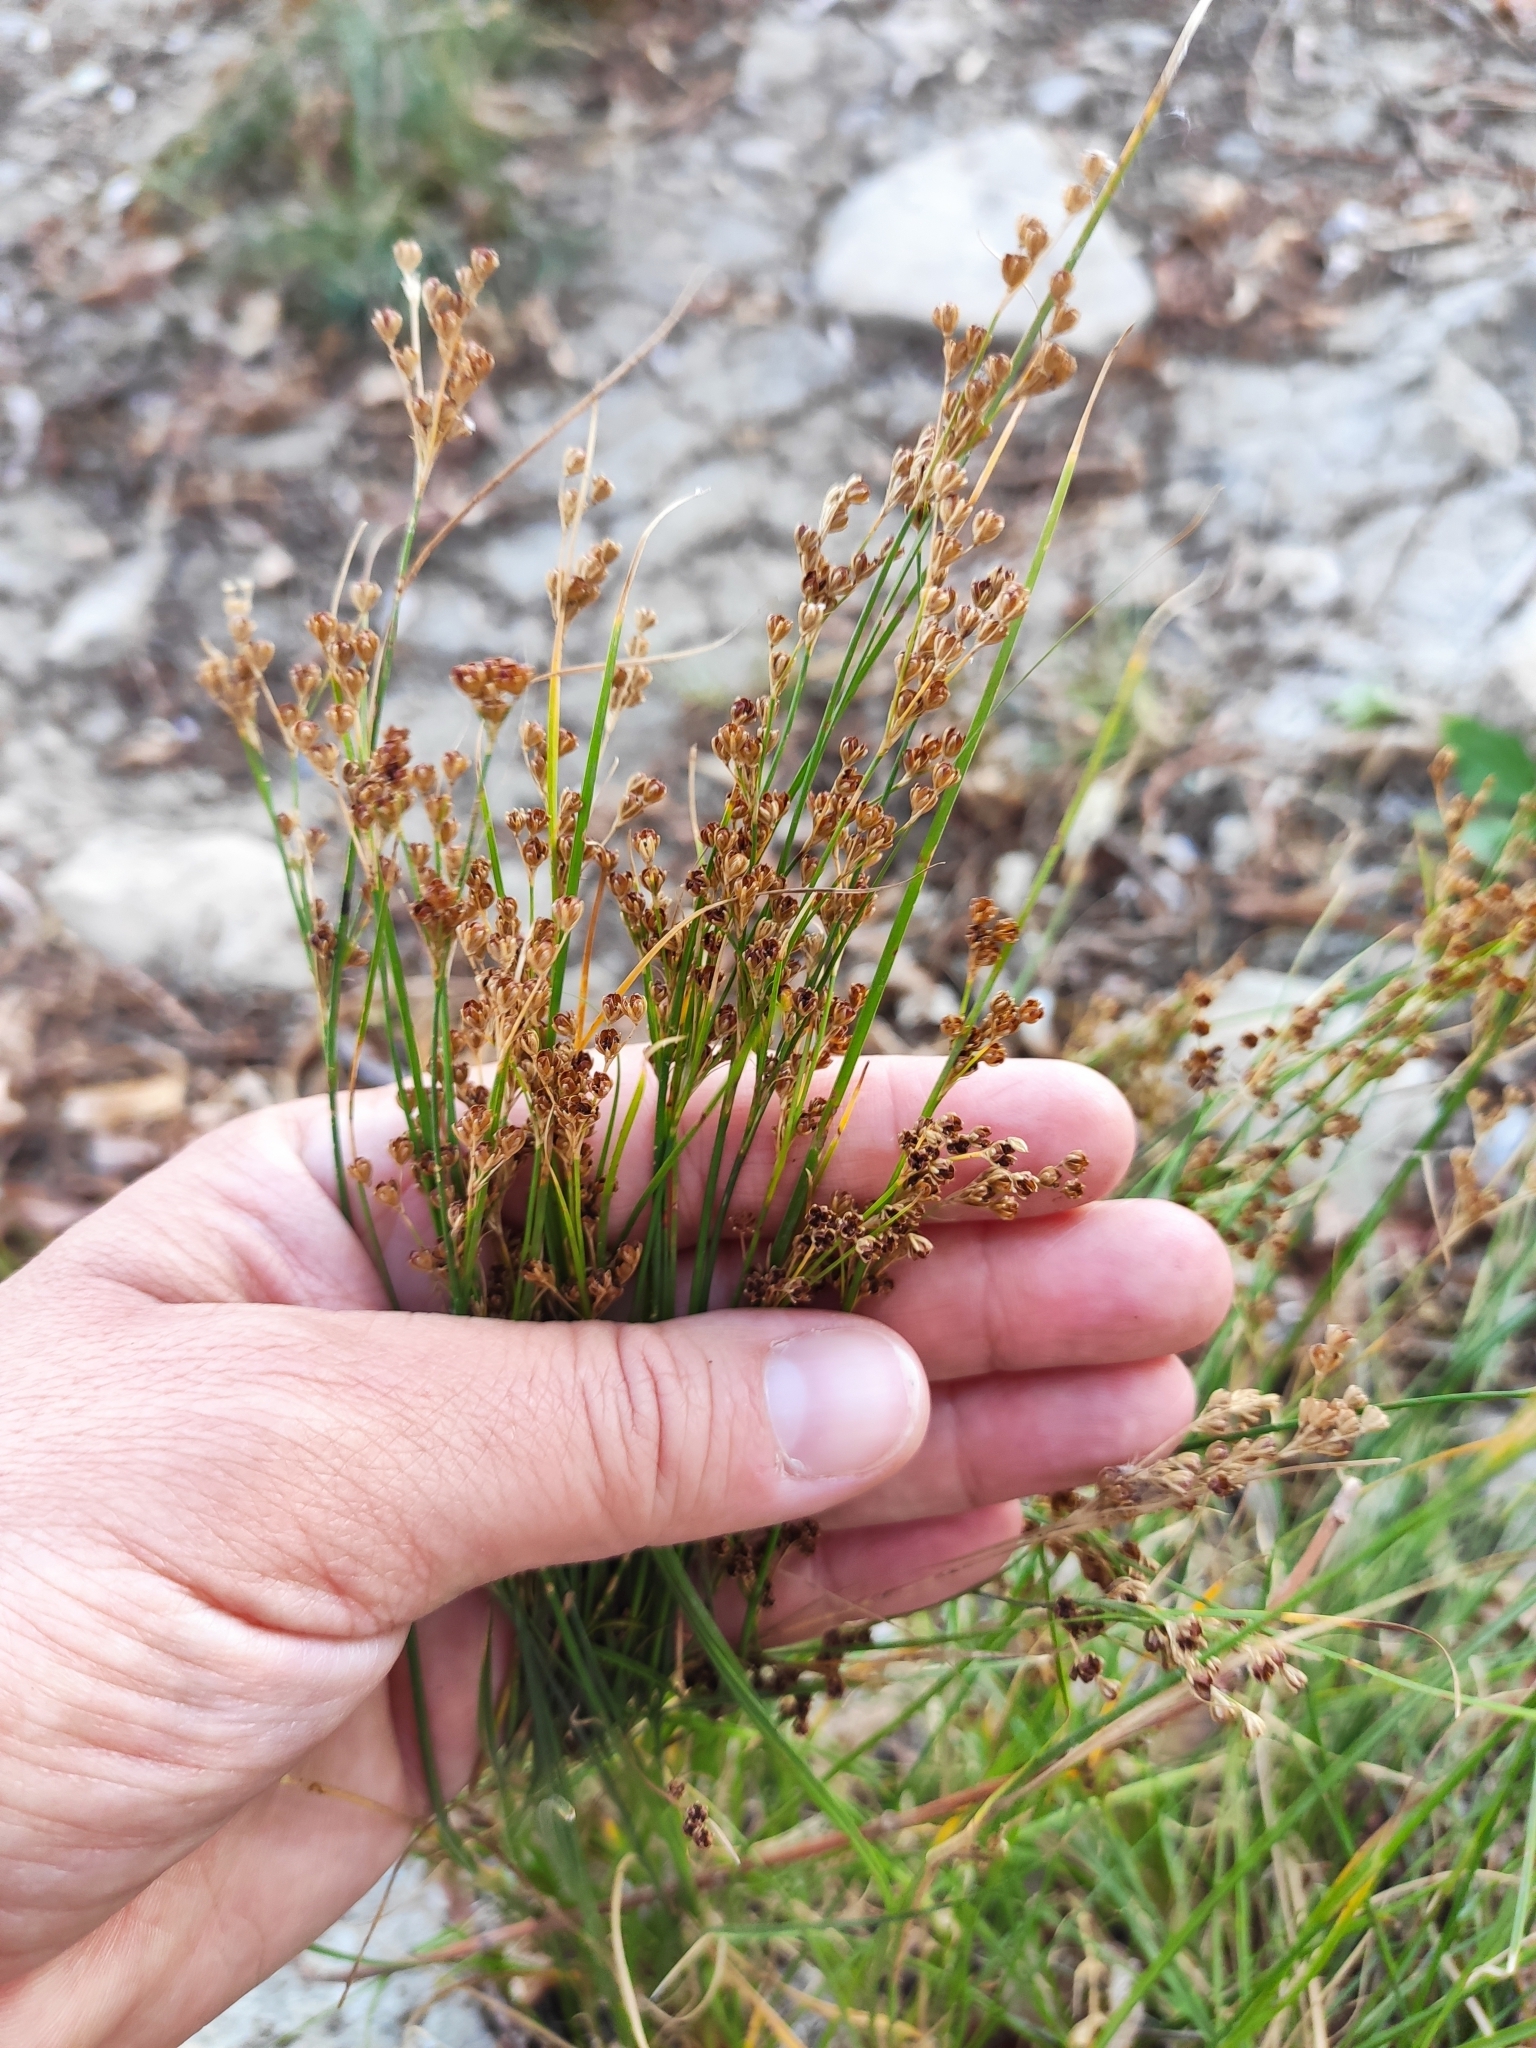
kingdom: Plantae
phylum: Tracheophyta
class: Liliopsida
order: Poales
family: Juncaceae
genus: Juncus
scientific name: Juncus compressus
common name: Round-fruited rush
